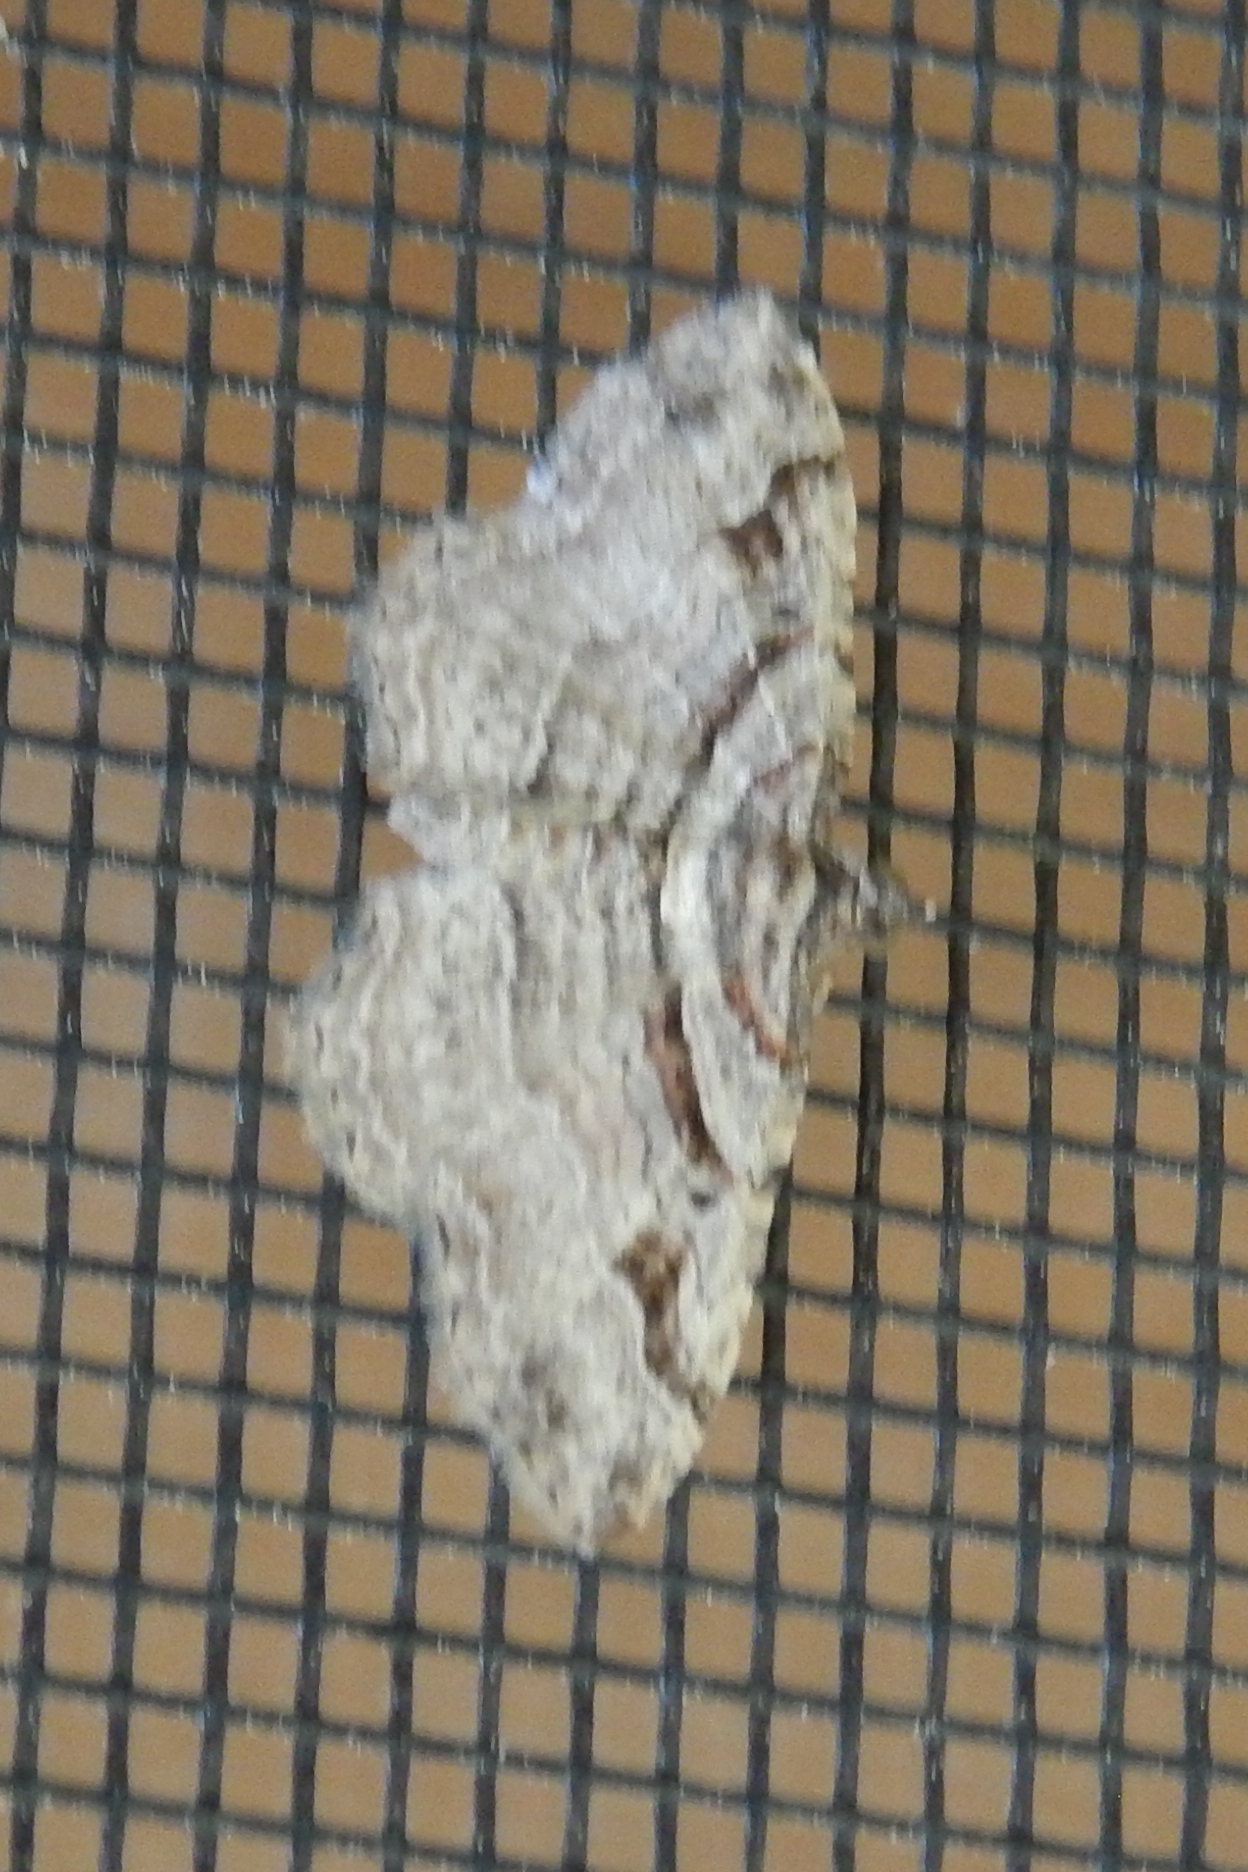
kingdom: Animalia
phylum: Arthropoda
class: Insecta
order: Lepidoptera
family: Geometridae
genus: Costaconvexa
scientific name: Costaconvexa centrostrigaria
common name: Bent-line carpet
